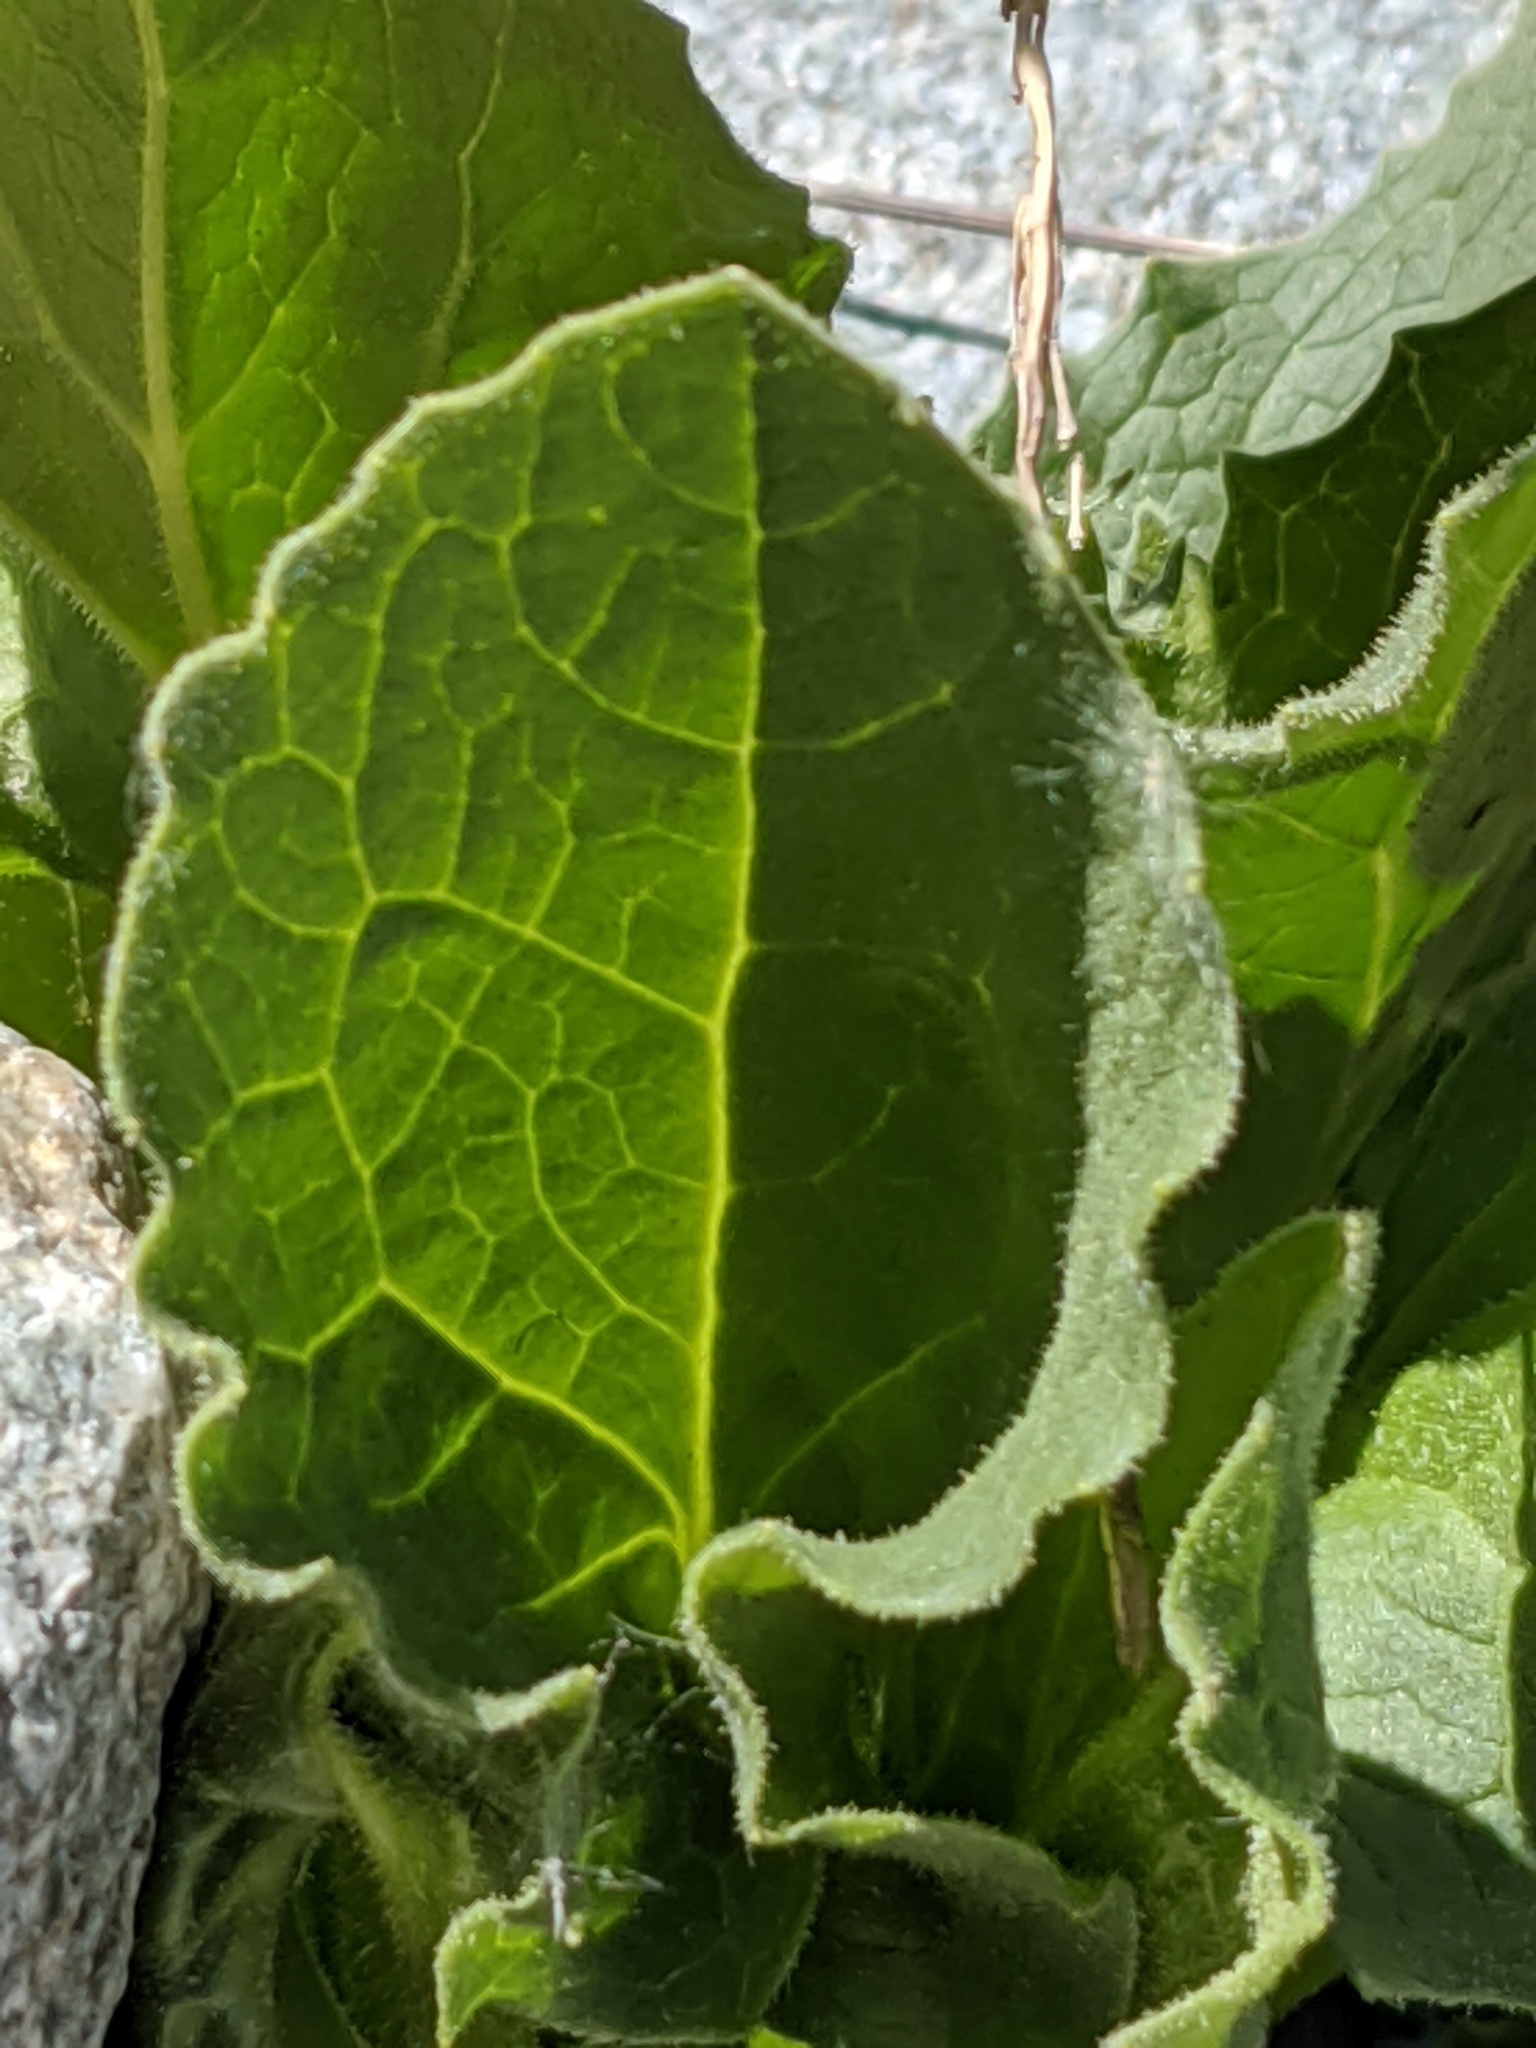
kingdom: Plantae
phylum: Tracheophyta
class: Magnoliopsida
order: Asterales
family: Asteraceae
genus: Doronicum
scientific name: Doronicum grandiflorum
